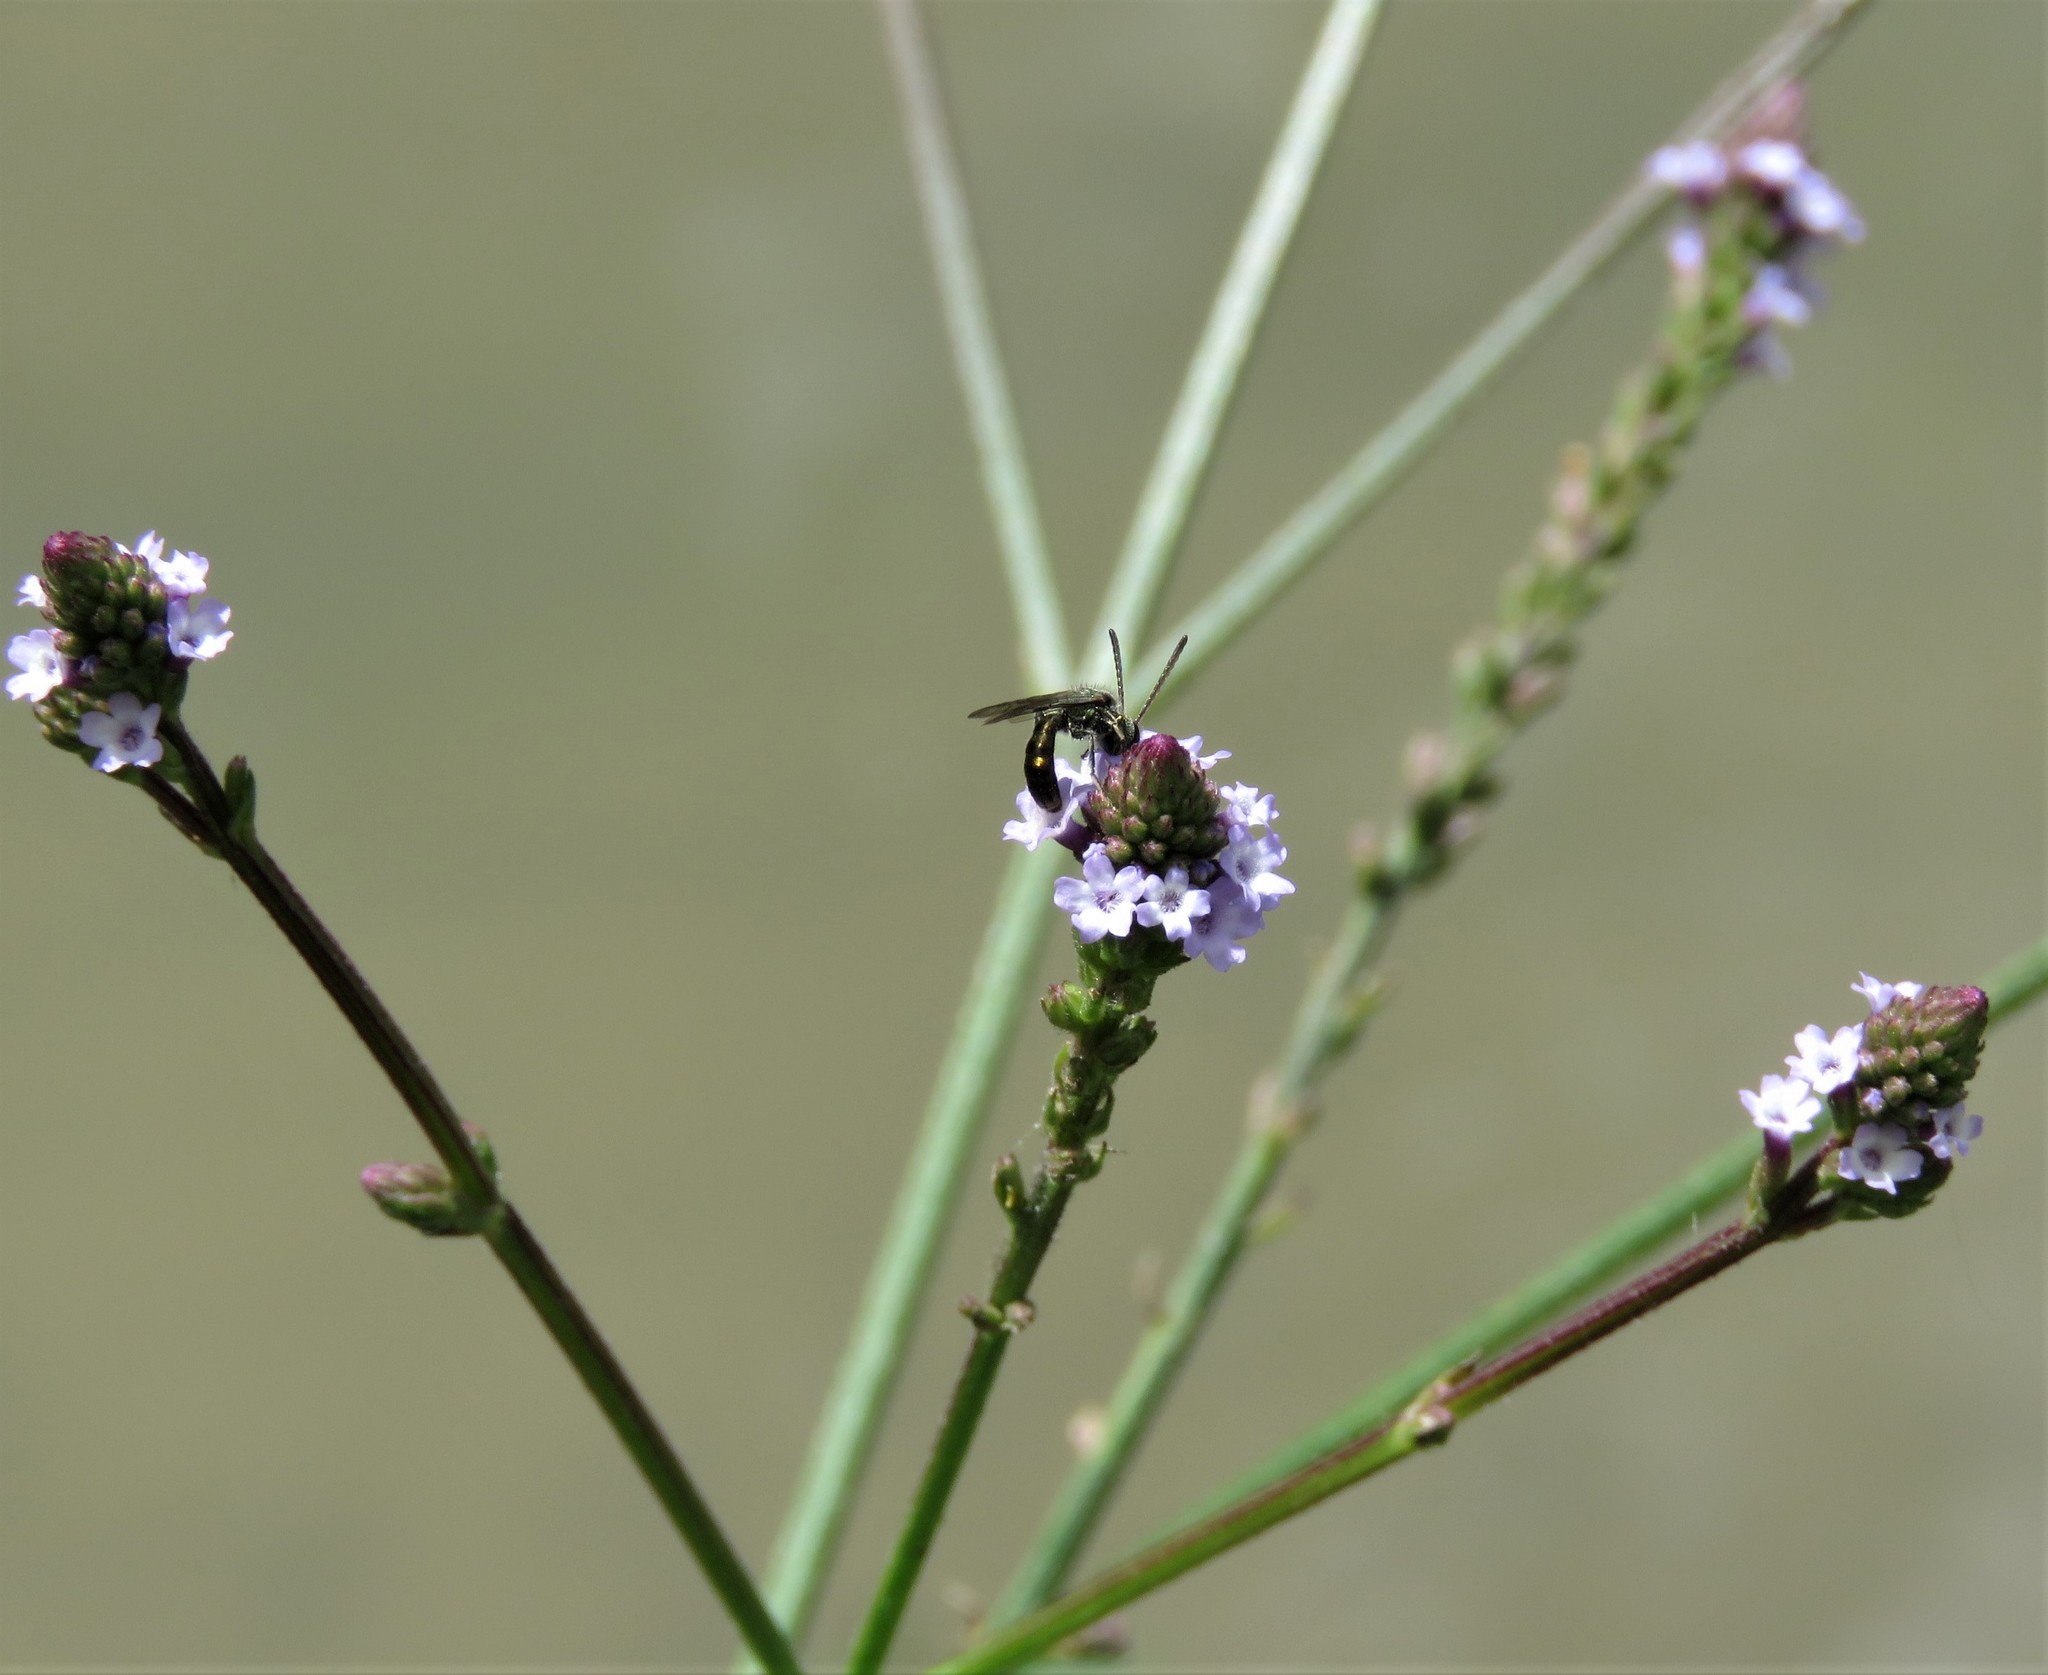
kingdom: Plantae
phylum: Tracheophyta
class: Magnoliopsida
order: Lamiales
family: Verbenaceae
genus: Verbena
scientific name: Verbena litoralis
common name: Seashore vervain
